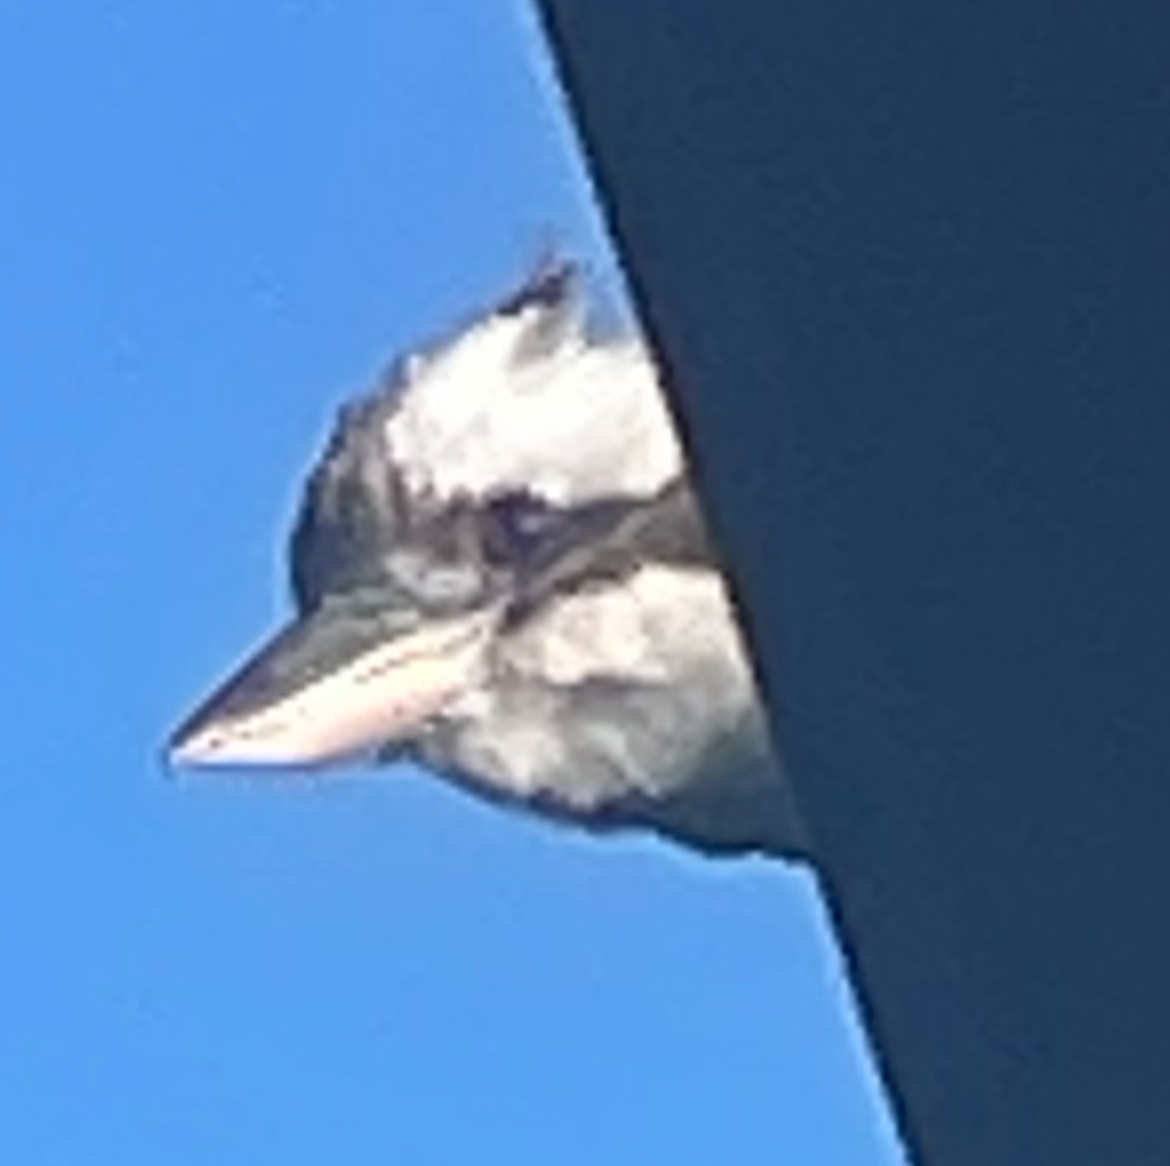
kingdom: Animalia
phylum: Chordata
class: Aves
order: Coraciiformes
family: Alcedinidae
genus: Dacelo
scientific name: Dacelo novaeguineae
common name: Laughing kookaburra
